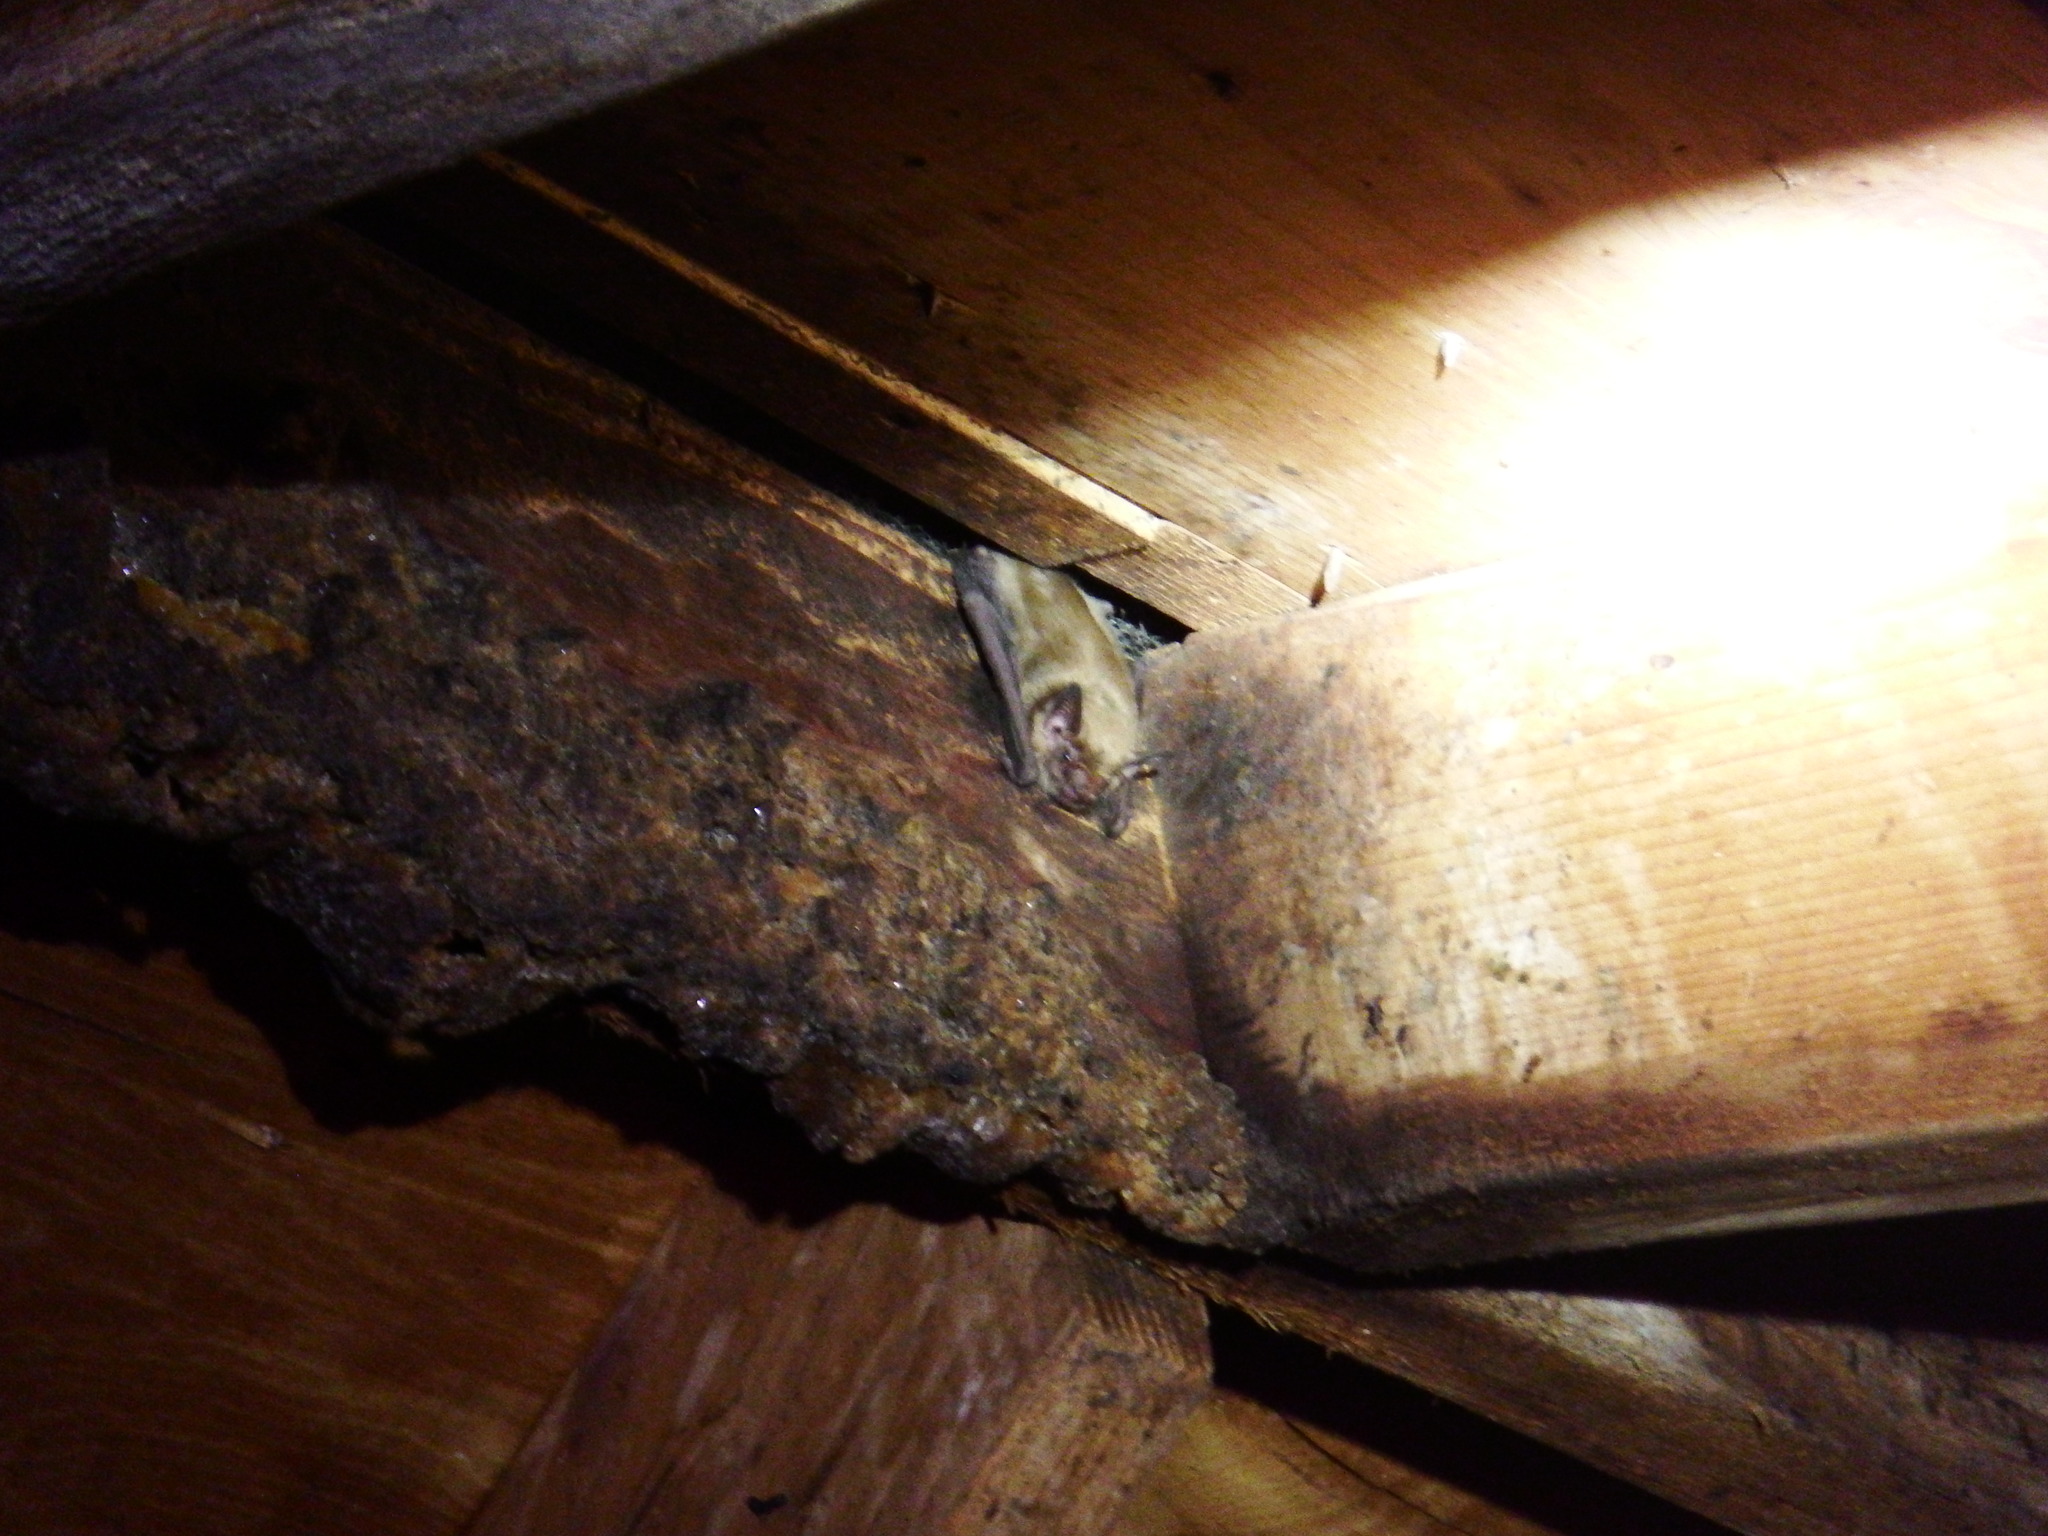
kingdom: Animalia
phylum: Chordata
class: Mammalia
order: Chiroptera
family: Vespertilionidae
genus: Eptesicus
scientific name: Eptesicus fuscus
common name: Big brown bat
